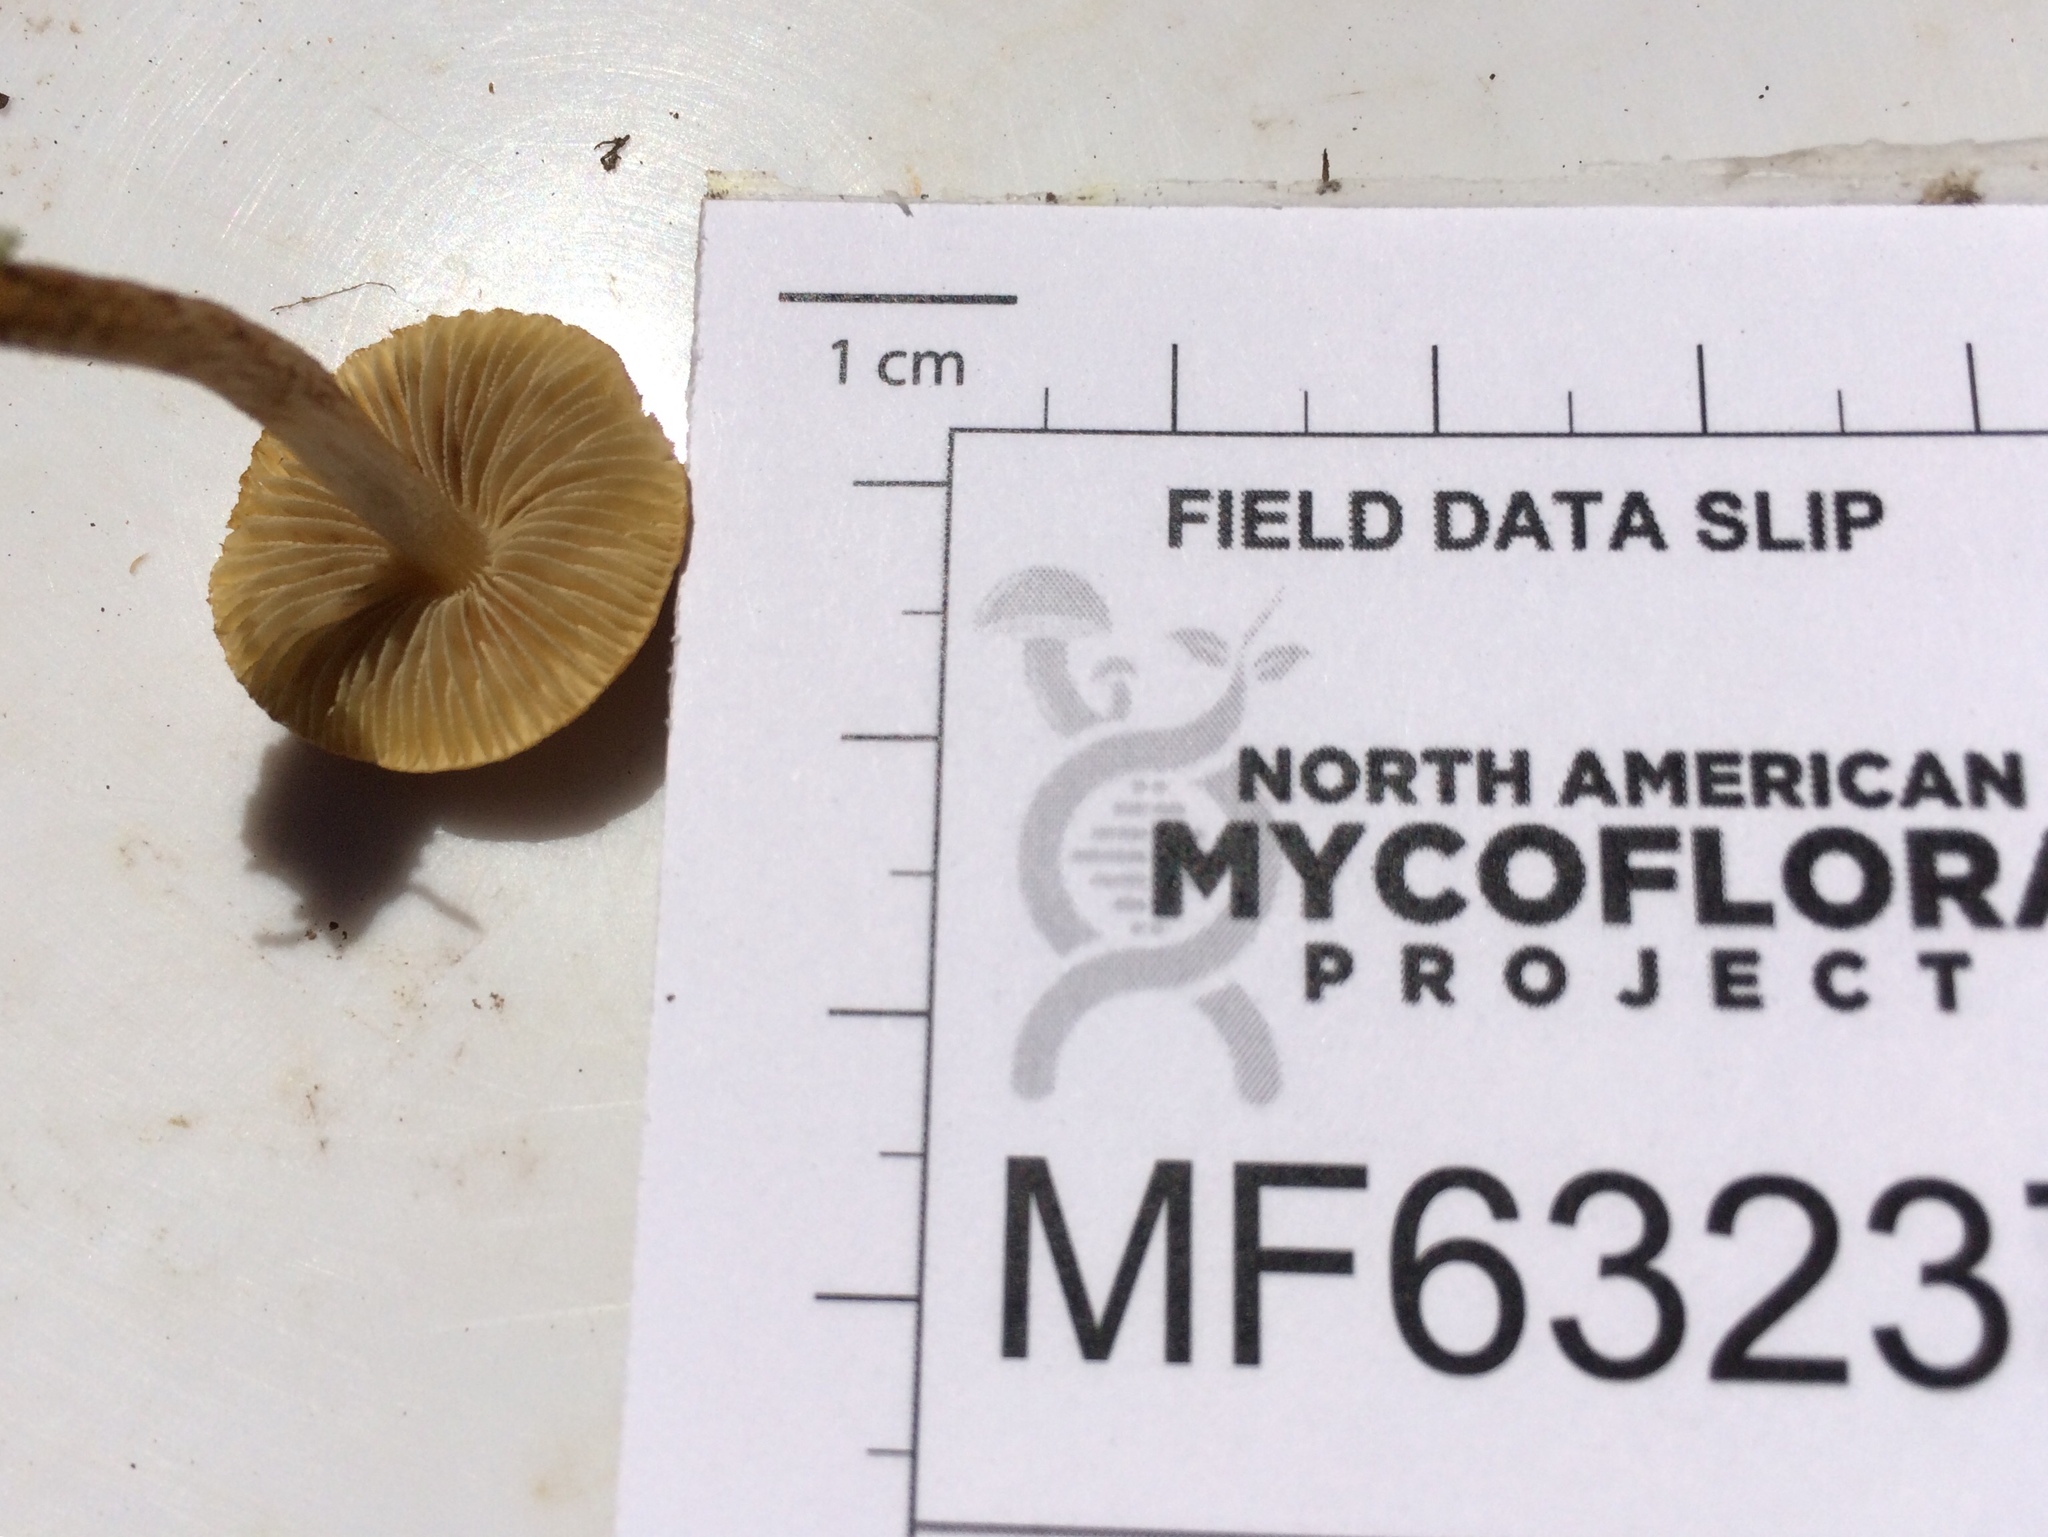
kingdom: Fungi
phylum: Basidiomycota
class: Agaricomycetes
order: Agaricales
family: Inocybaceae
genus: Mallocybe
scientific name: Mallocybe unicolor
